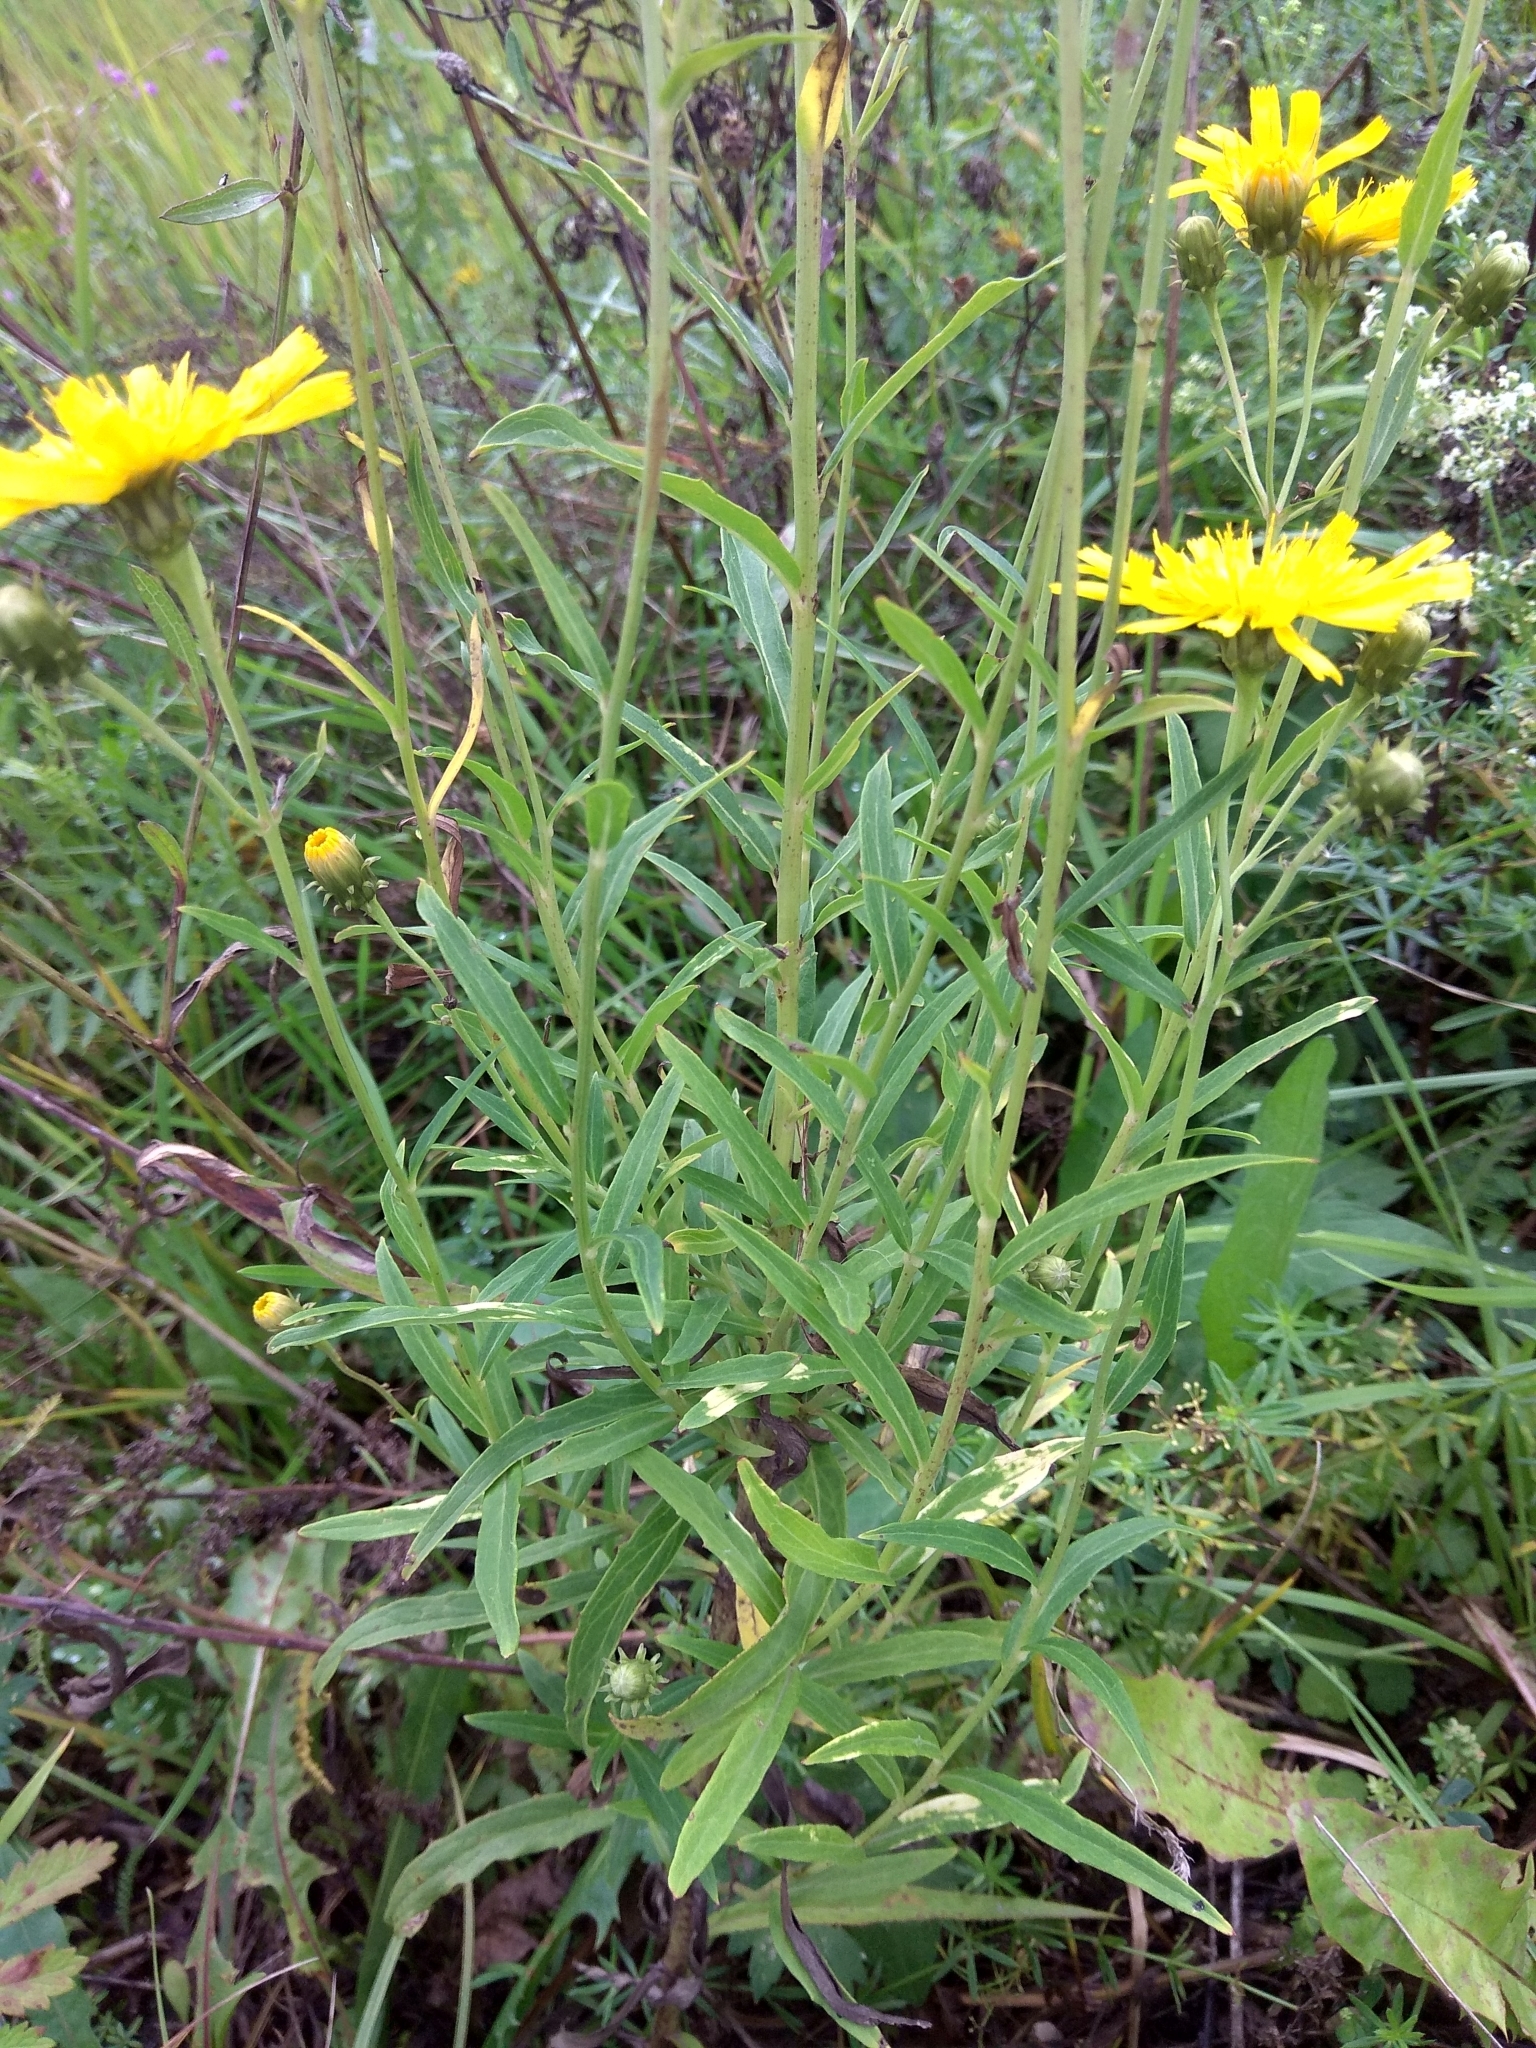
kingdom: Plantae
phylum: Tracheophyta
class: Magnoliopsida
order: Asterales
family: Asteraceae
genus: Hieracium
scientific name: Hieracium umbellatum
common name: Northern hawkweed
